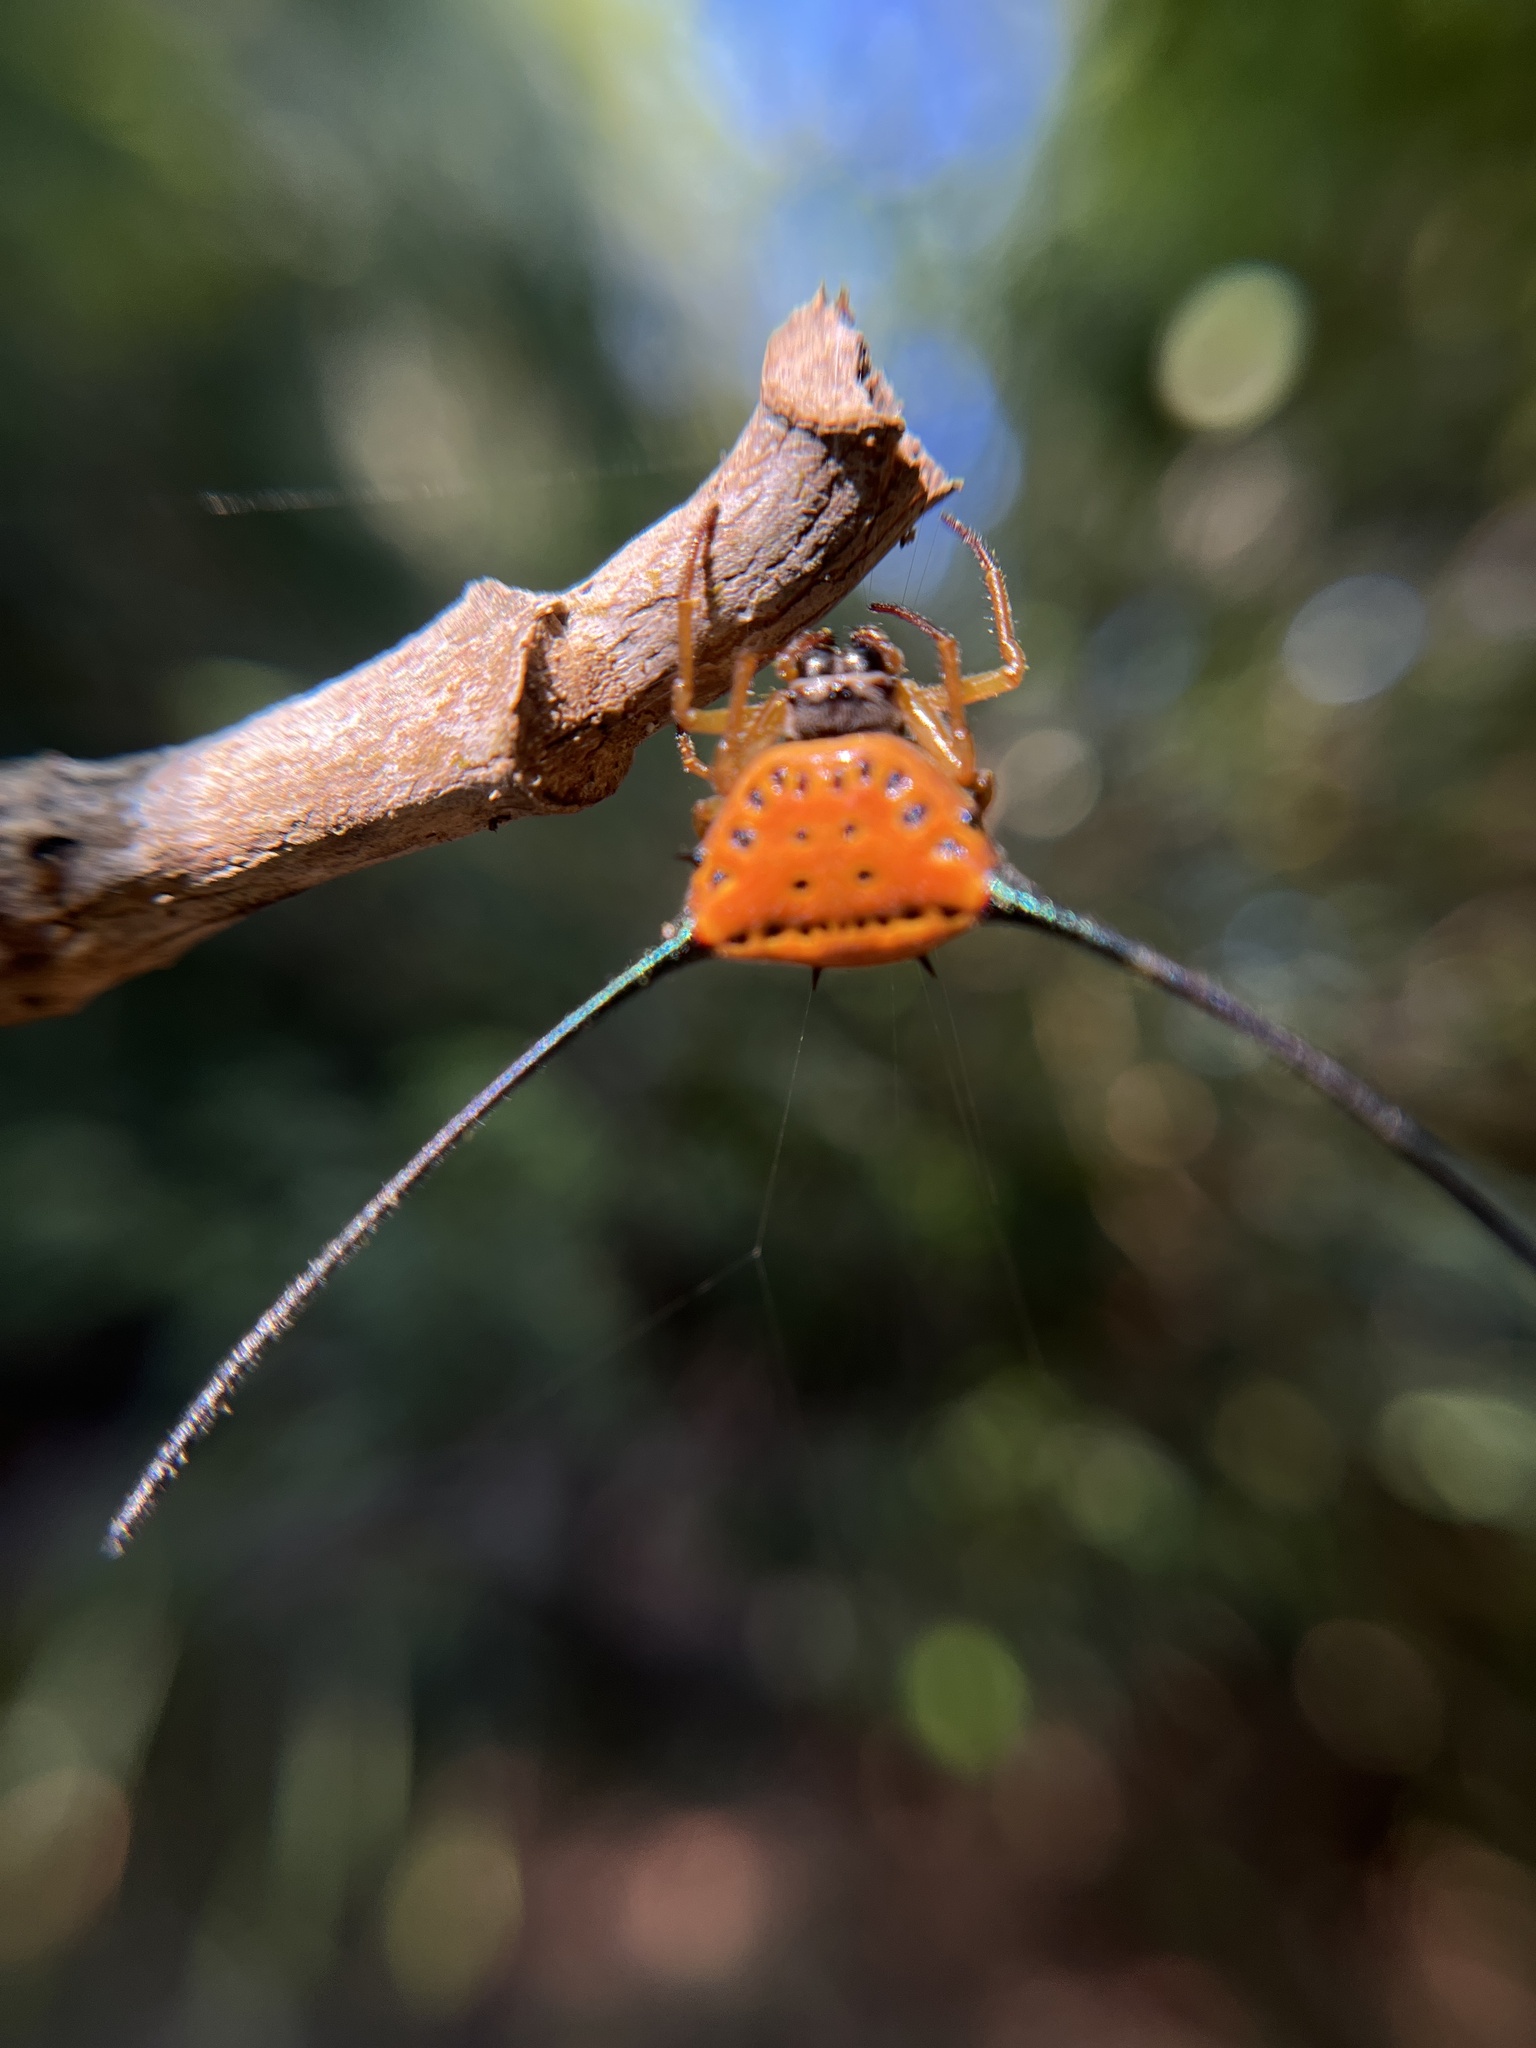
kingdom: Animalia
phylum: Arthropoda
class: Arachnida
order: Araneae
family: Araneidae
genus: Macracantha
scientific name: Macracantha arcuata
